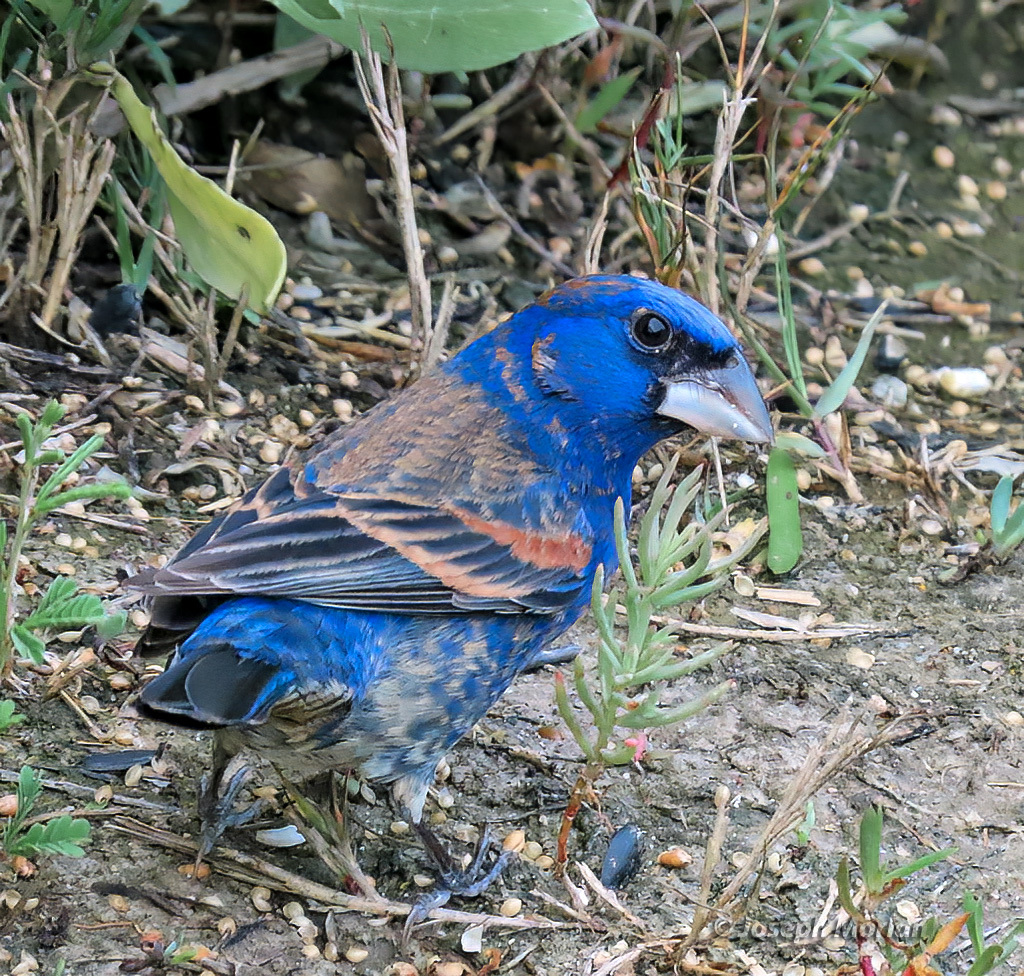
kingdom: Animalia
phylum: Chordata
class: Aves
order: Passeriformes
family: Cardinalidae
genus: Passerina
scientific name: Passerina caerulea
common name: Blue grosbeak
